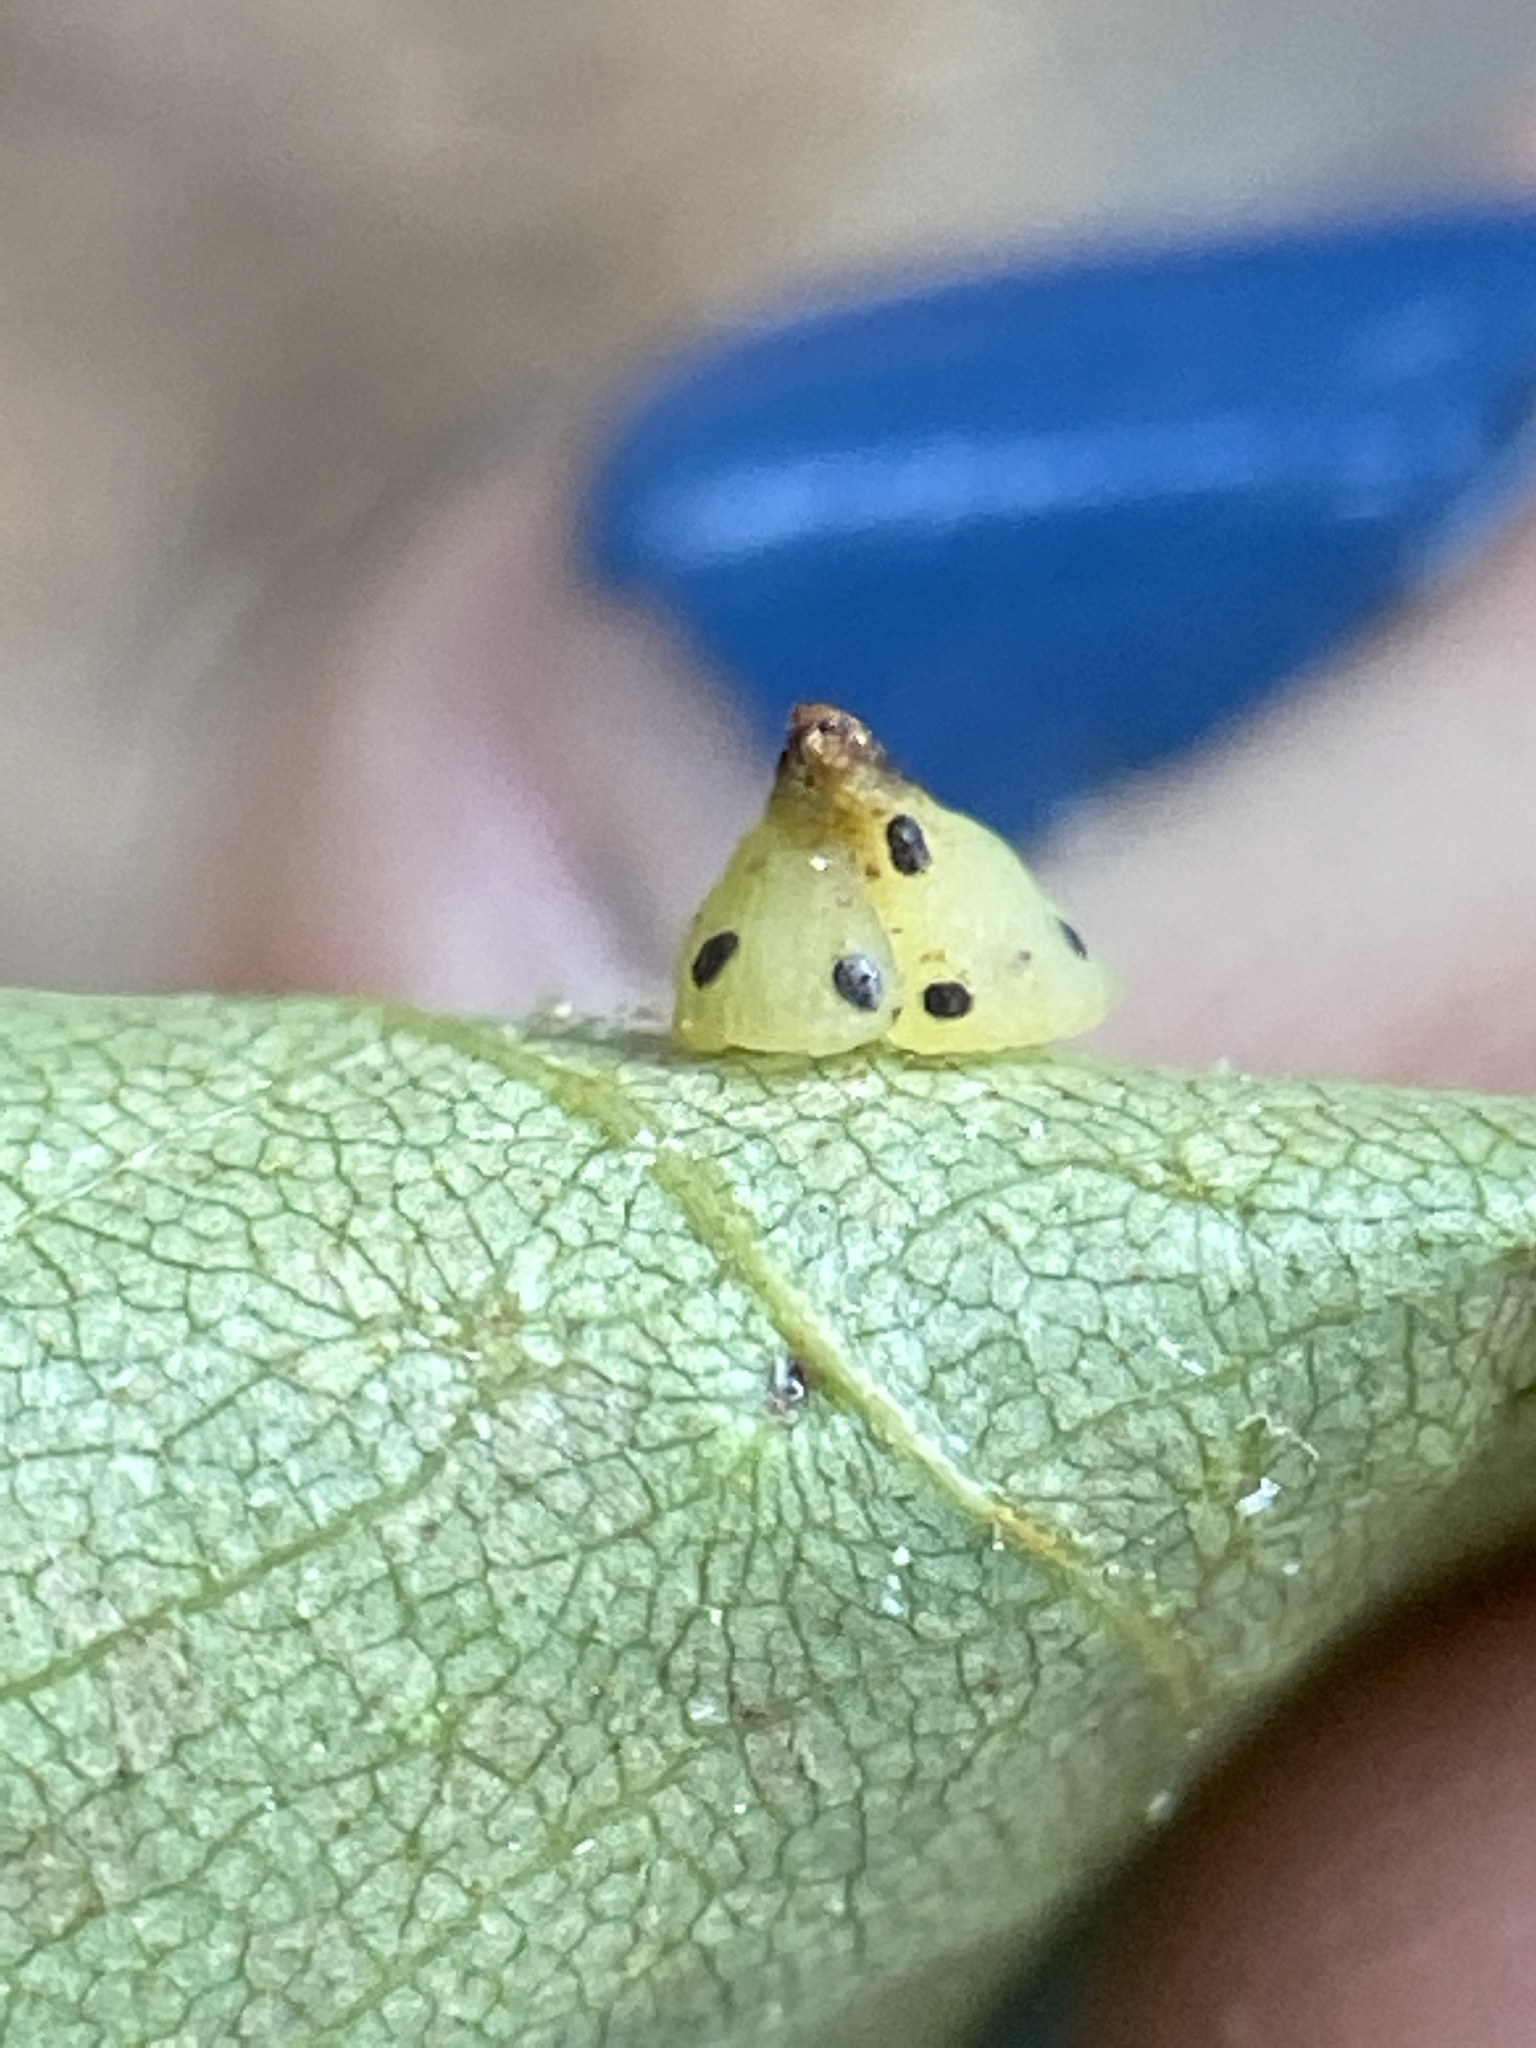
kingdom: Animalia
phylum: Arthropoda
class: Insecta
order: Diptera
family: Cecidomyiidae
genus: Caryomyia
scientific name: Caryomyia sanguinolenta
